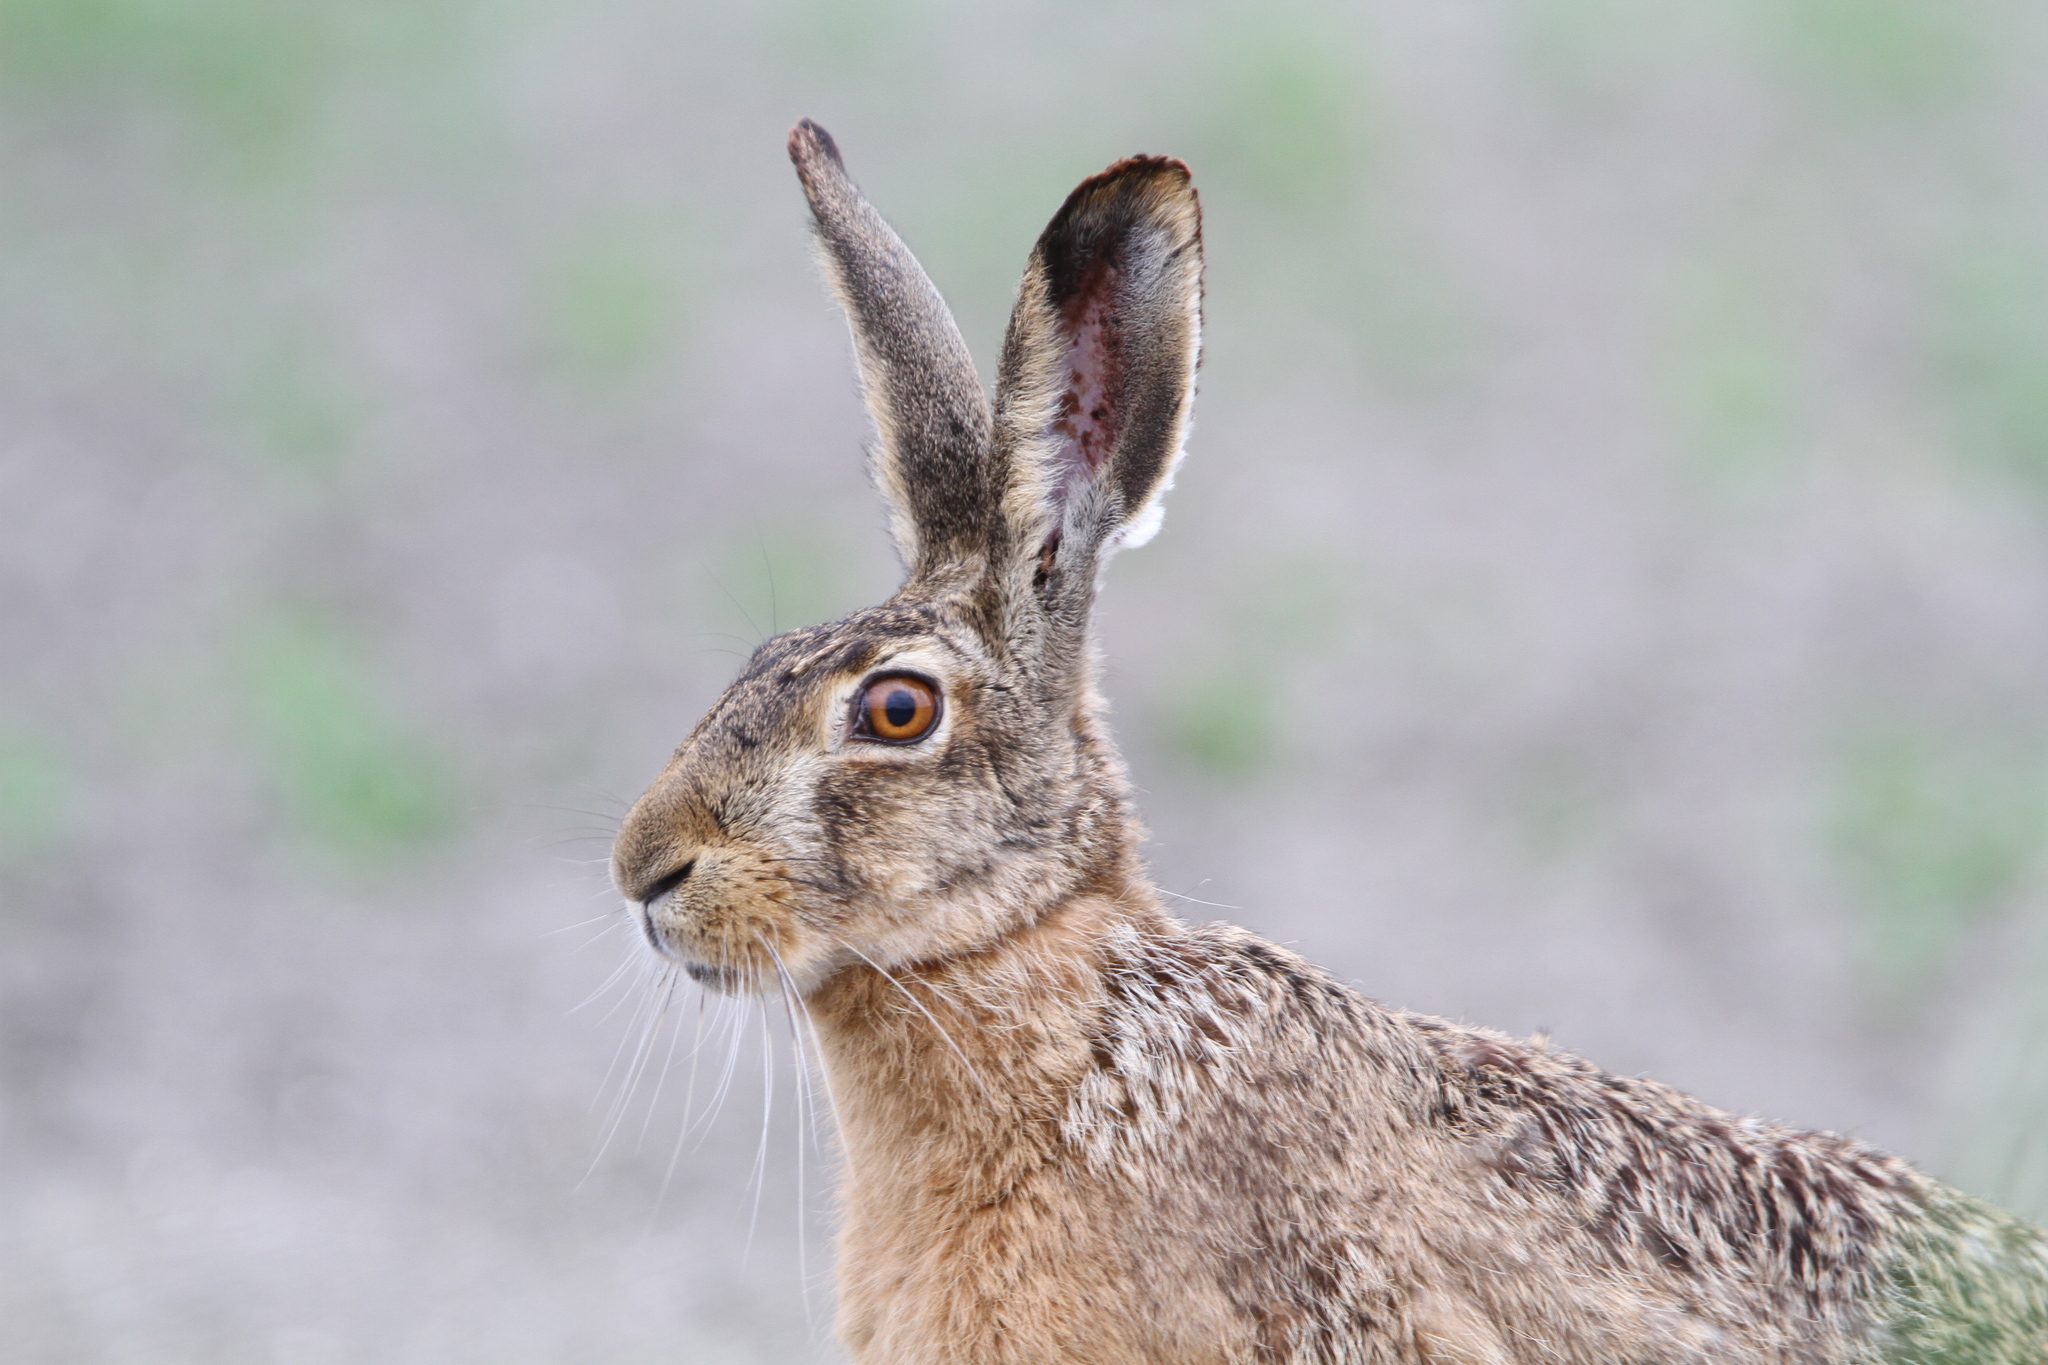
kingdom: Animalia
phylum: Chordata
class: Mammalia
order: Lagomorpha
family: Leporidae
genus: Lepus
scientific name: Lepus europaeus
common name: European hare
